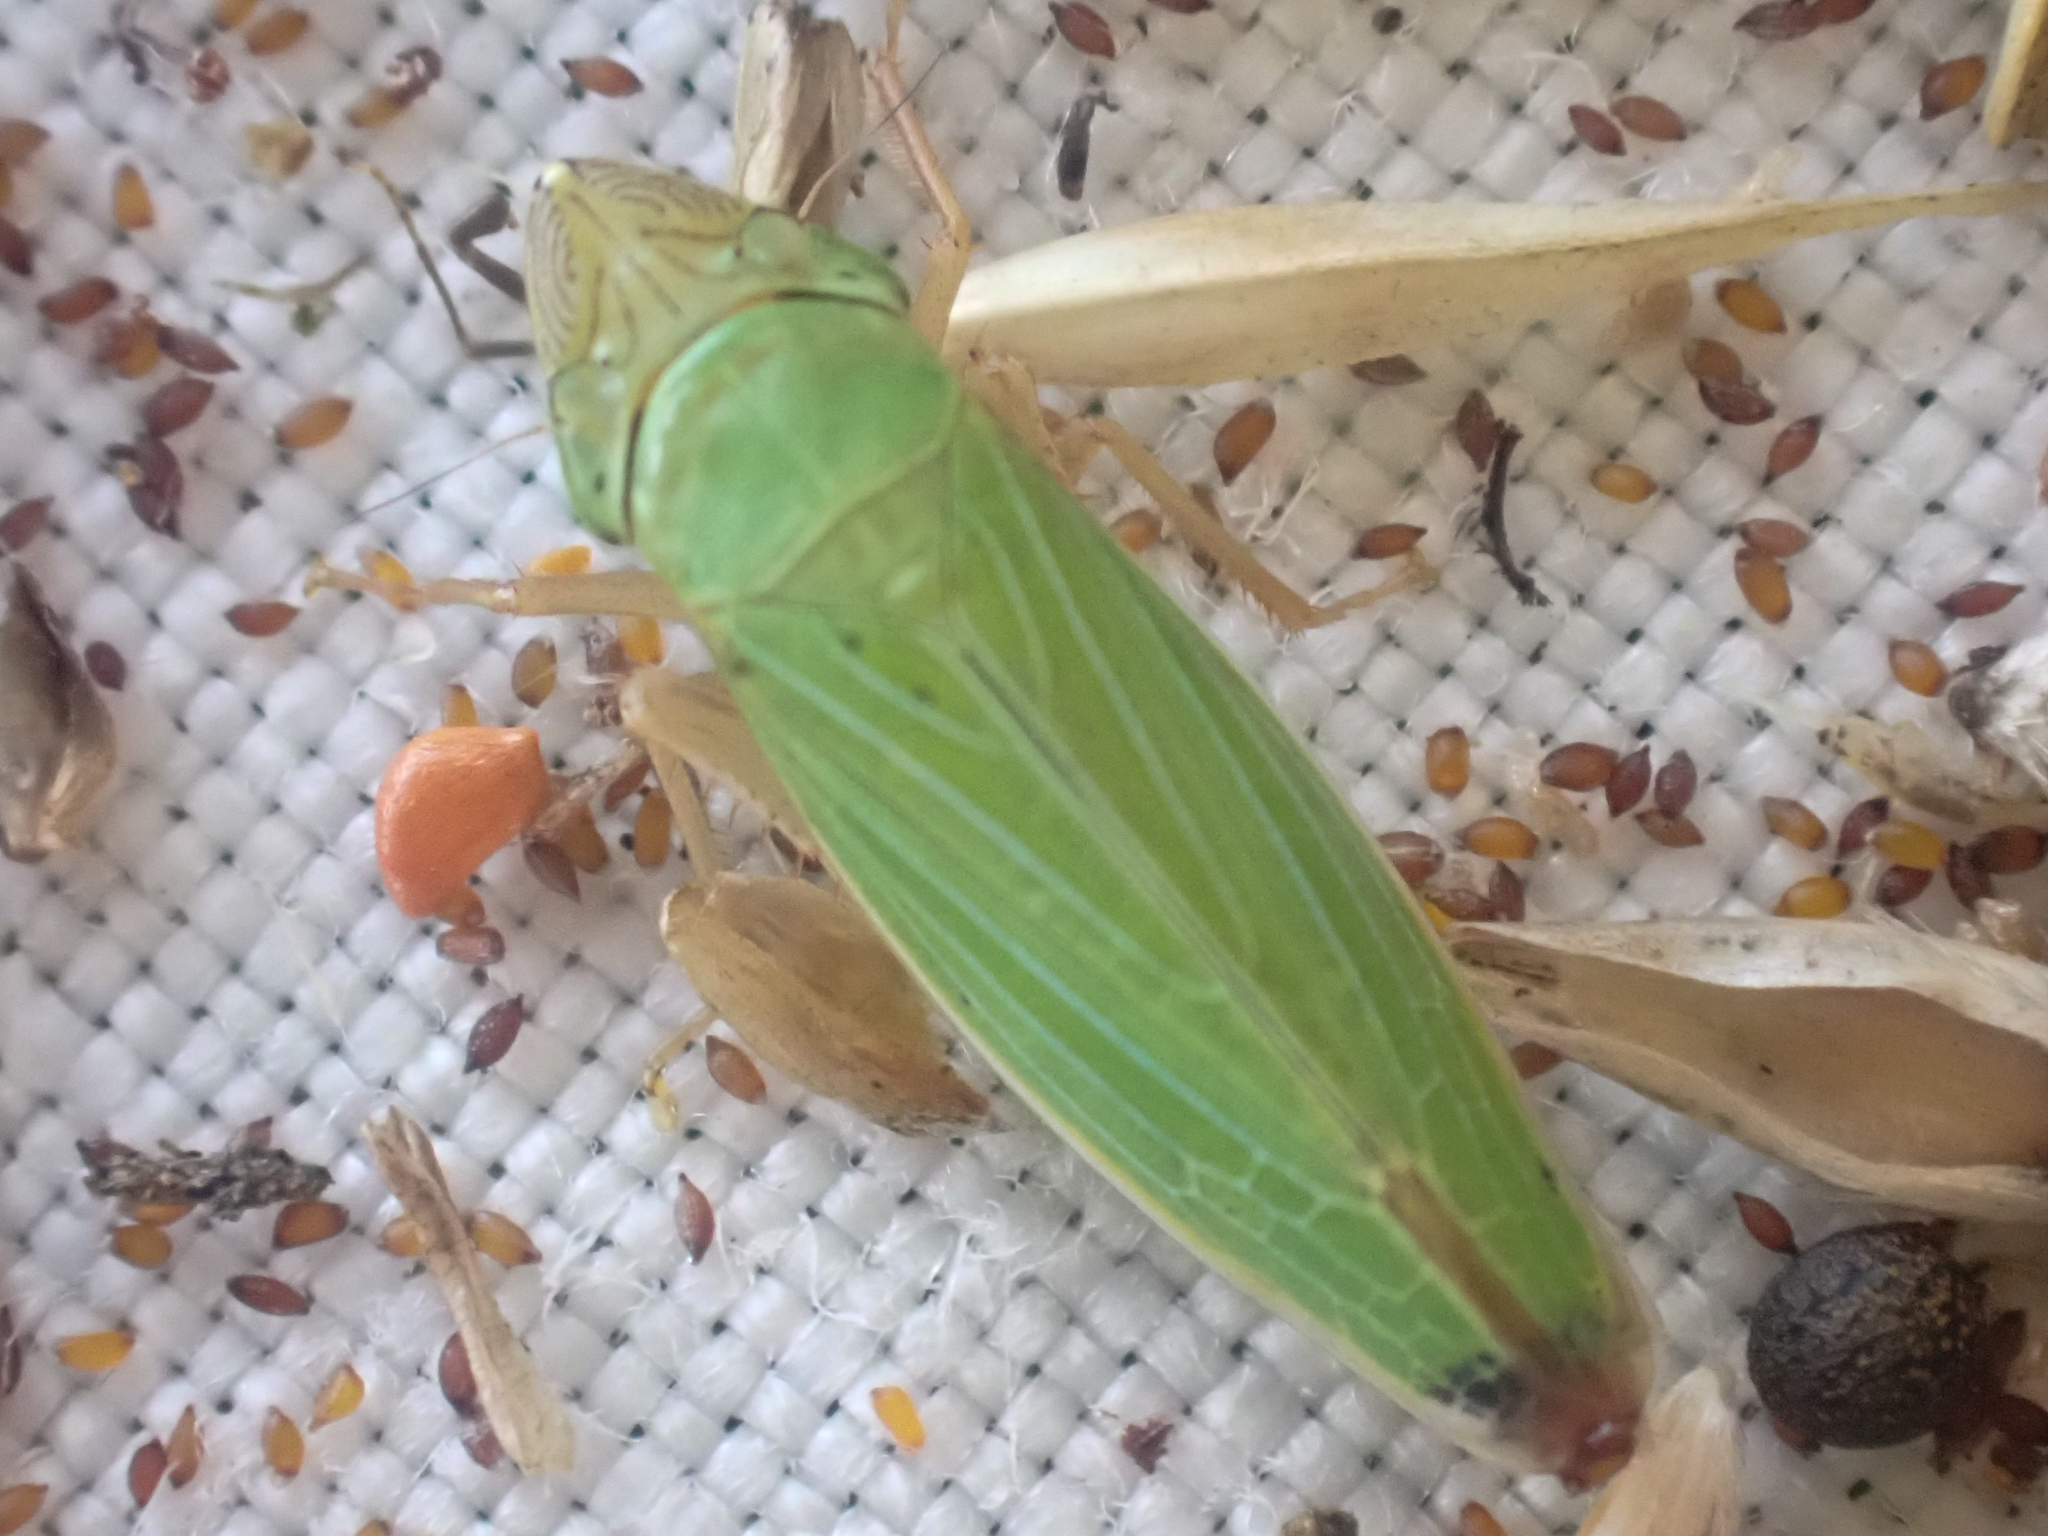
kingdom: Animalia
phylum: Arthropoda
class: Insecta
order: Hemiptera
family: Cicadellidae
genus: Draeculacephala
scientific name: Draeculacephala crassicornis
